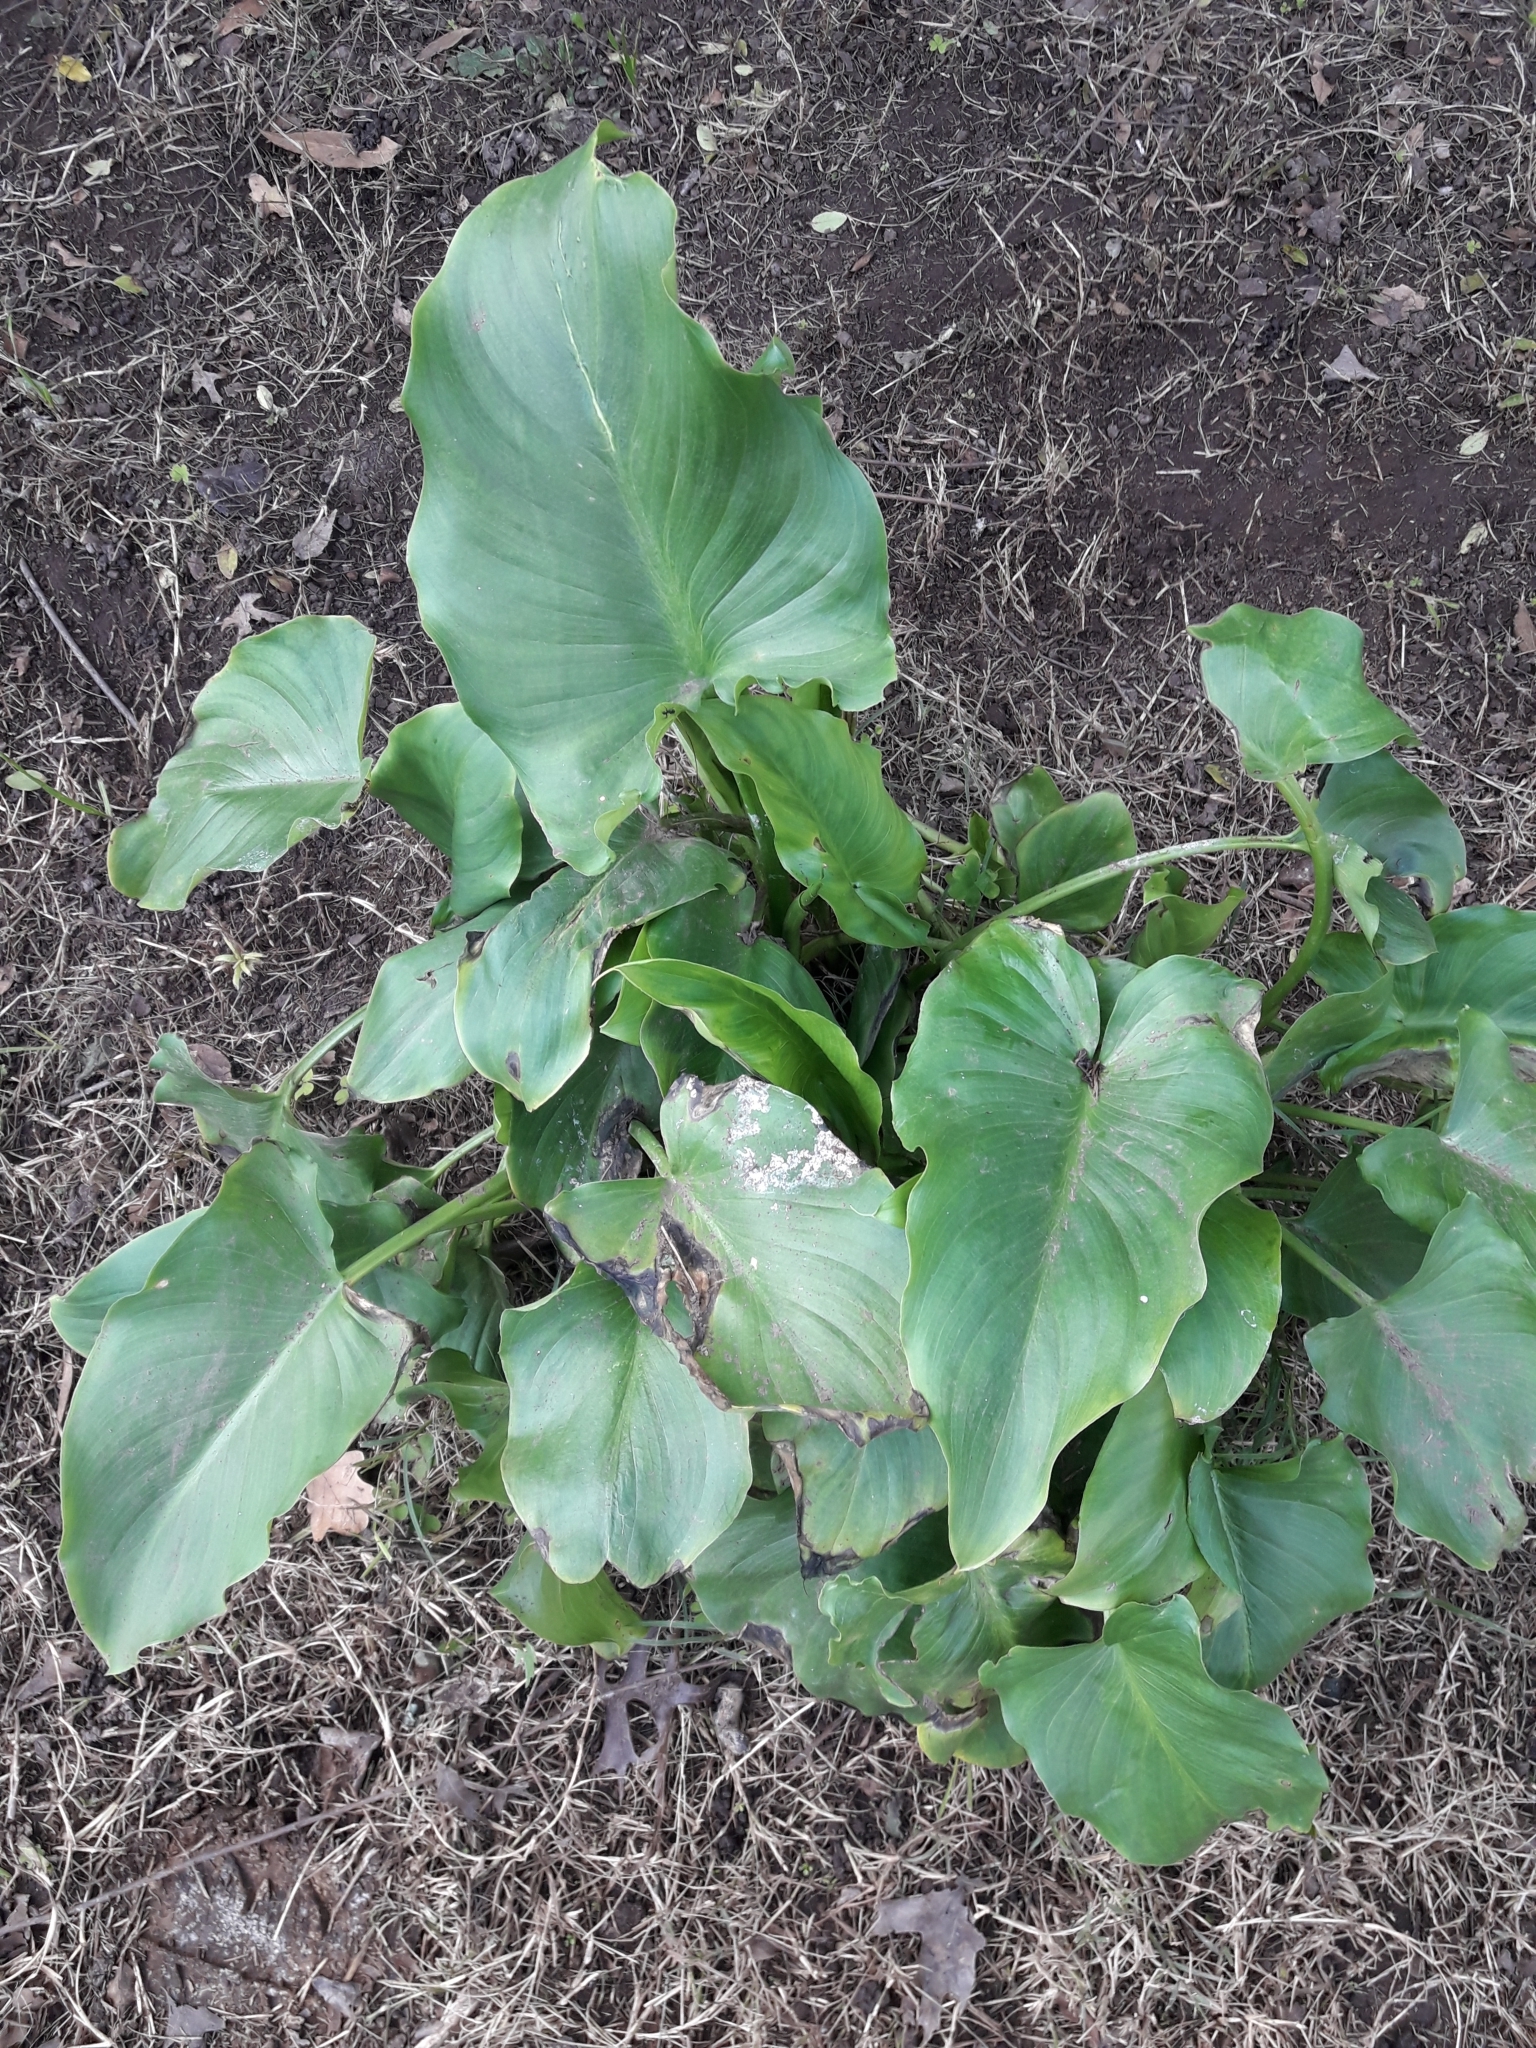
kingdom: Plantae
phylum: Tracheophyta
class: Liliopsida
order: Alismatales
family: Araceae
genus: Zantedeschia
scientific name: Zantedeschia aethiopica
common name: Altar-lily
